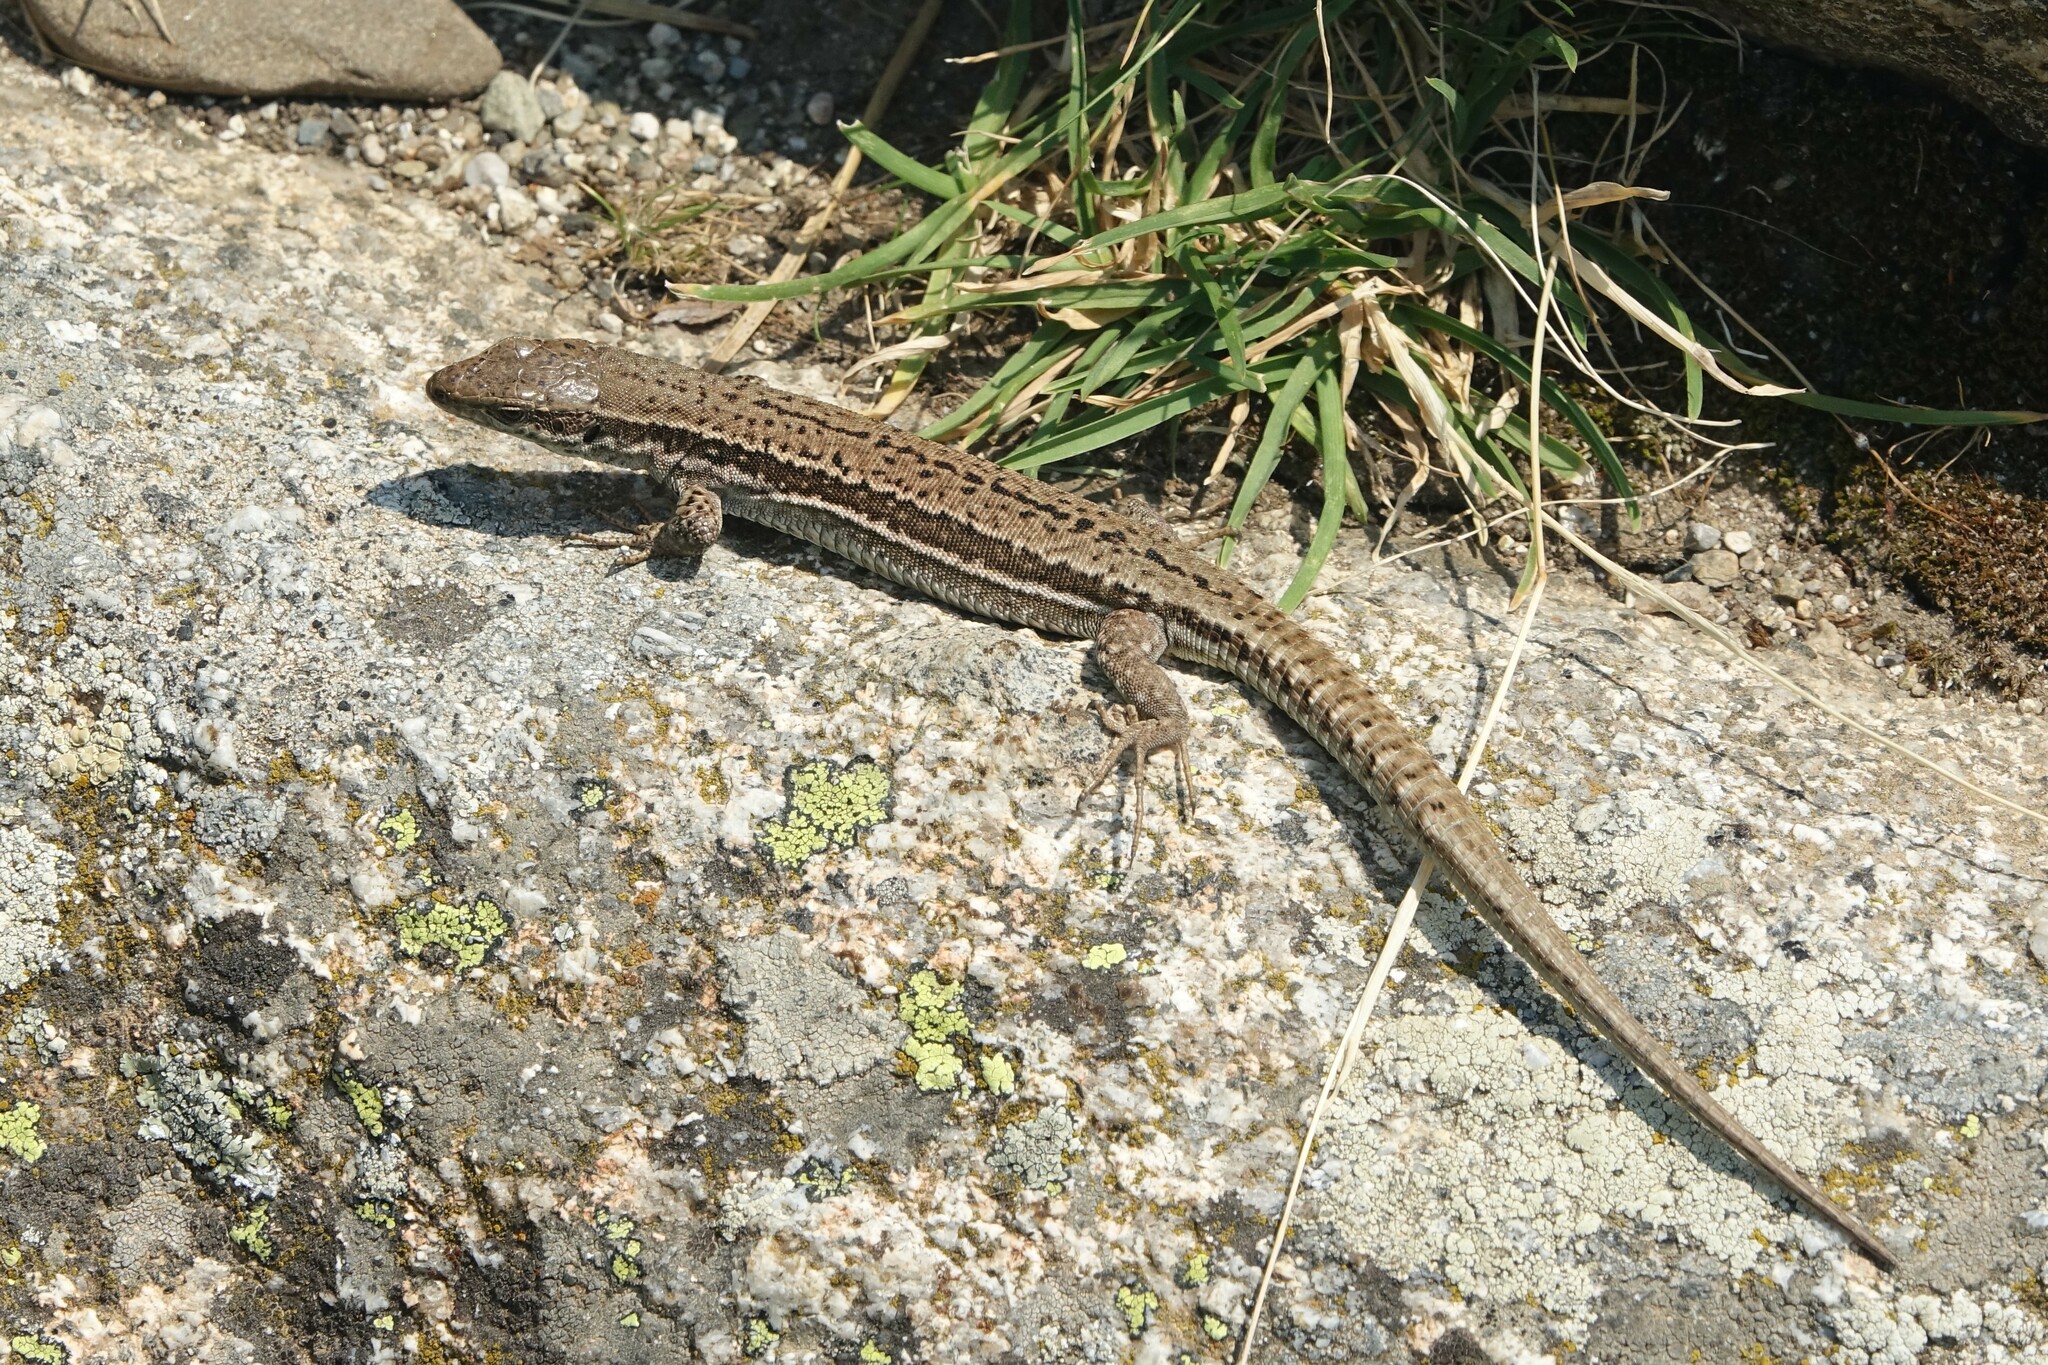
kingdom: Animalia
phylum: Chordata
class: Squamata
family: Lacertidae
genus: Podarcis
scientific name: Podarcis muralis
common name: Common wall lizard
